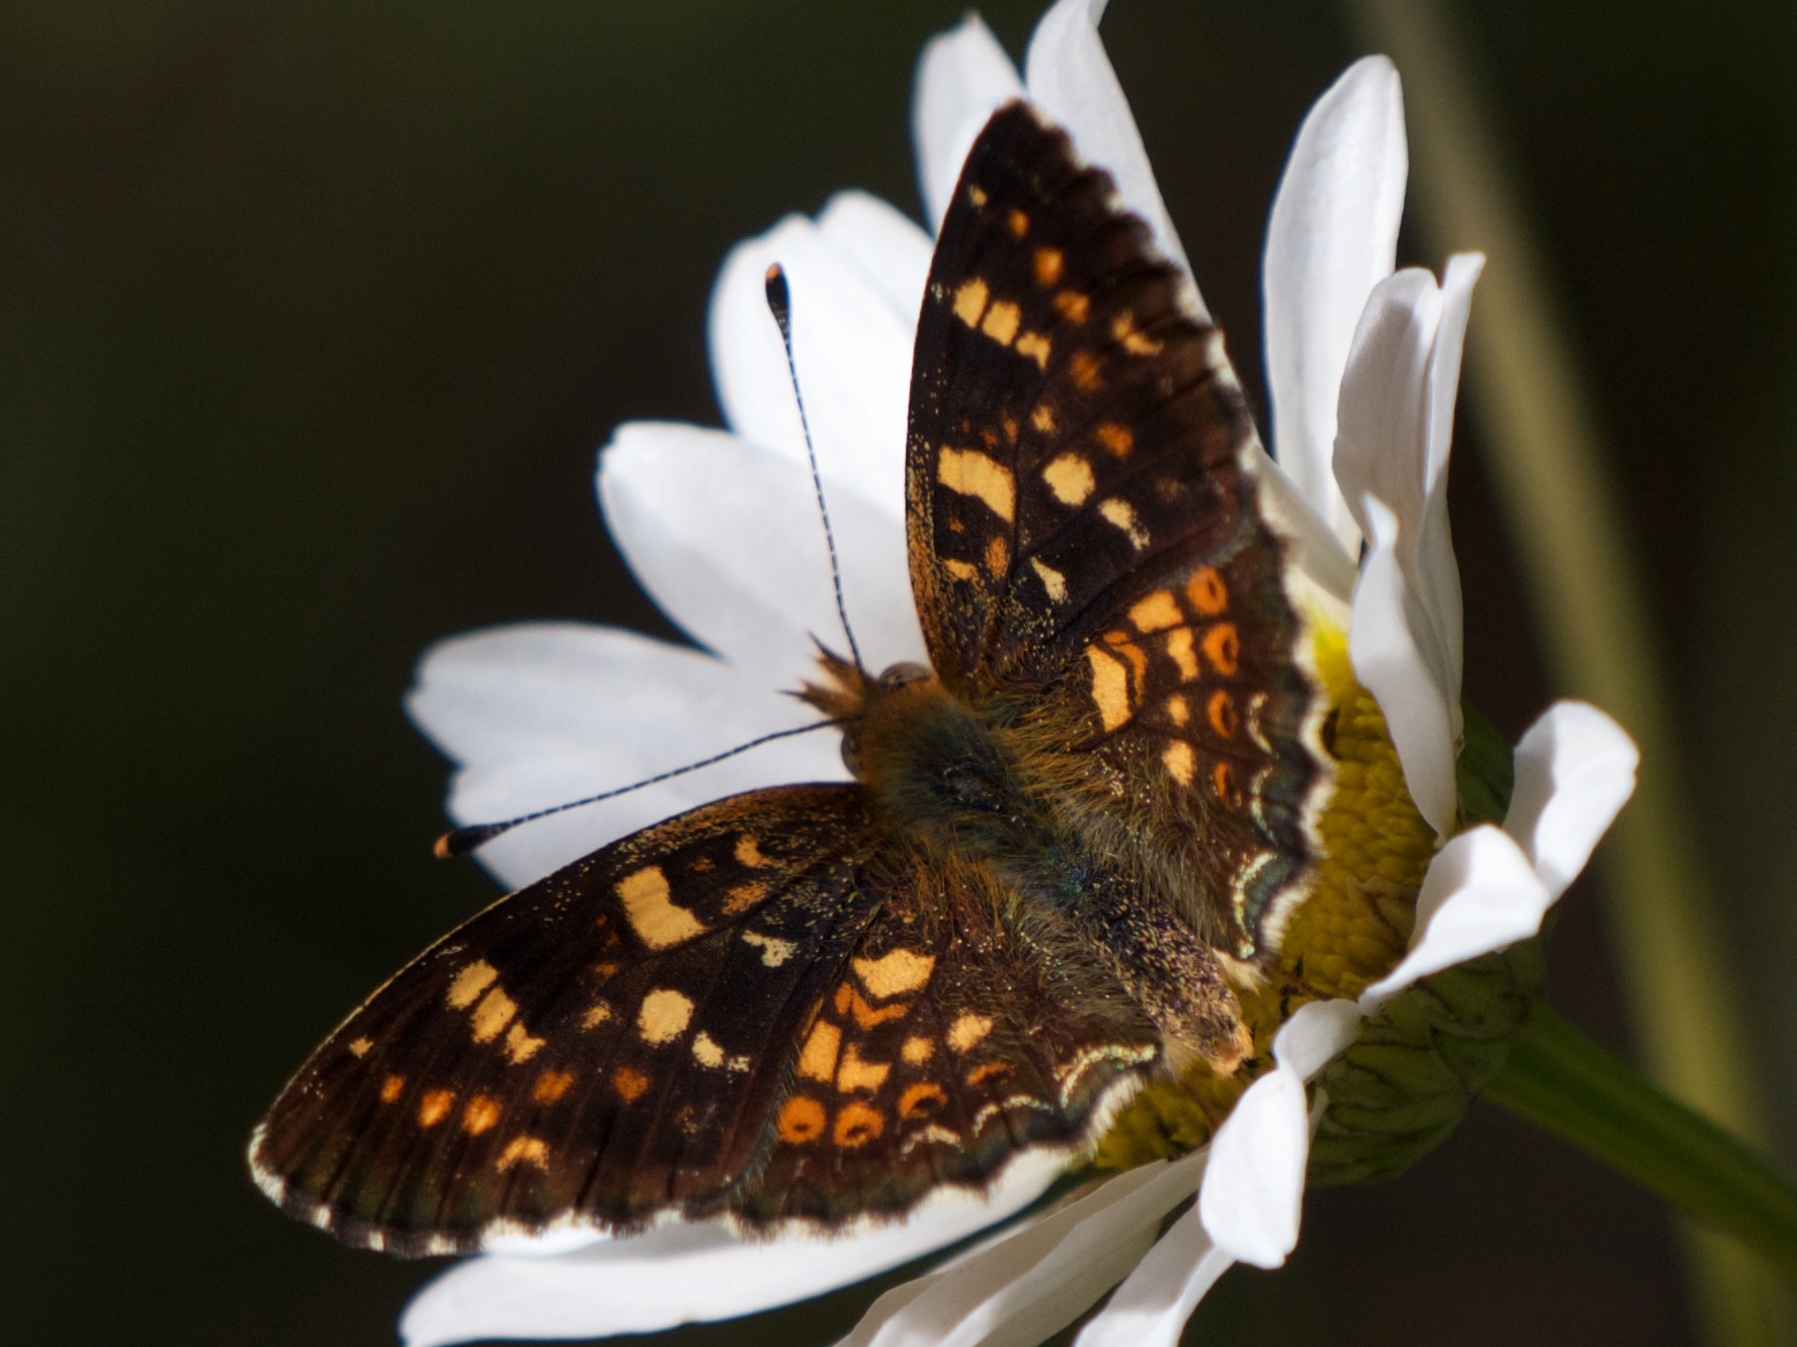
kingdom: Animalia
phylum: Arthropoda
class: Insecta
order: Lepidoptera
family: Nymphalidae
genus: Phyciodes
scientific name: Phyciodes tharos
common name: Pearl crescent
